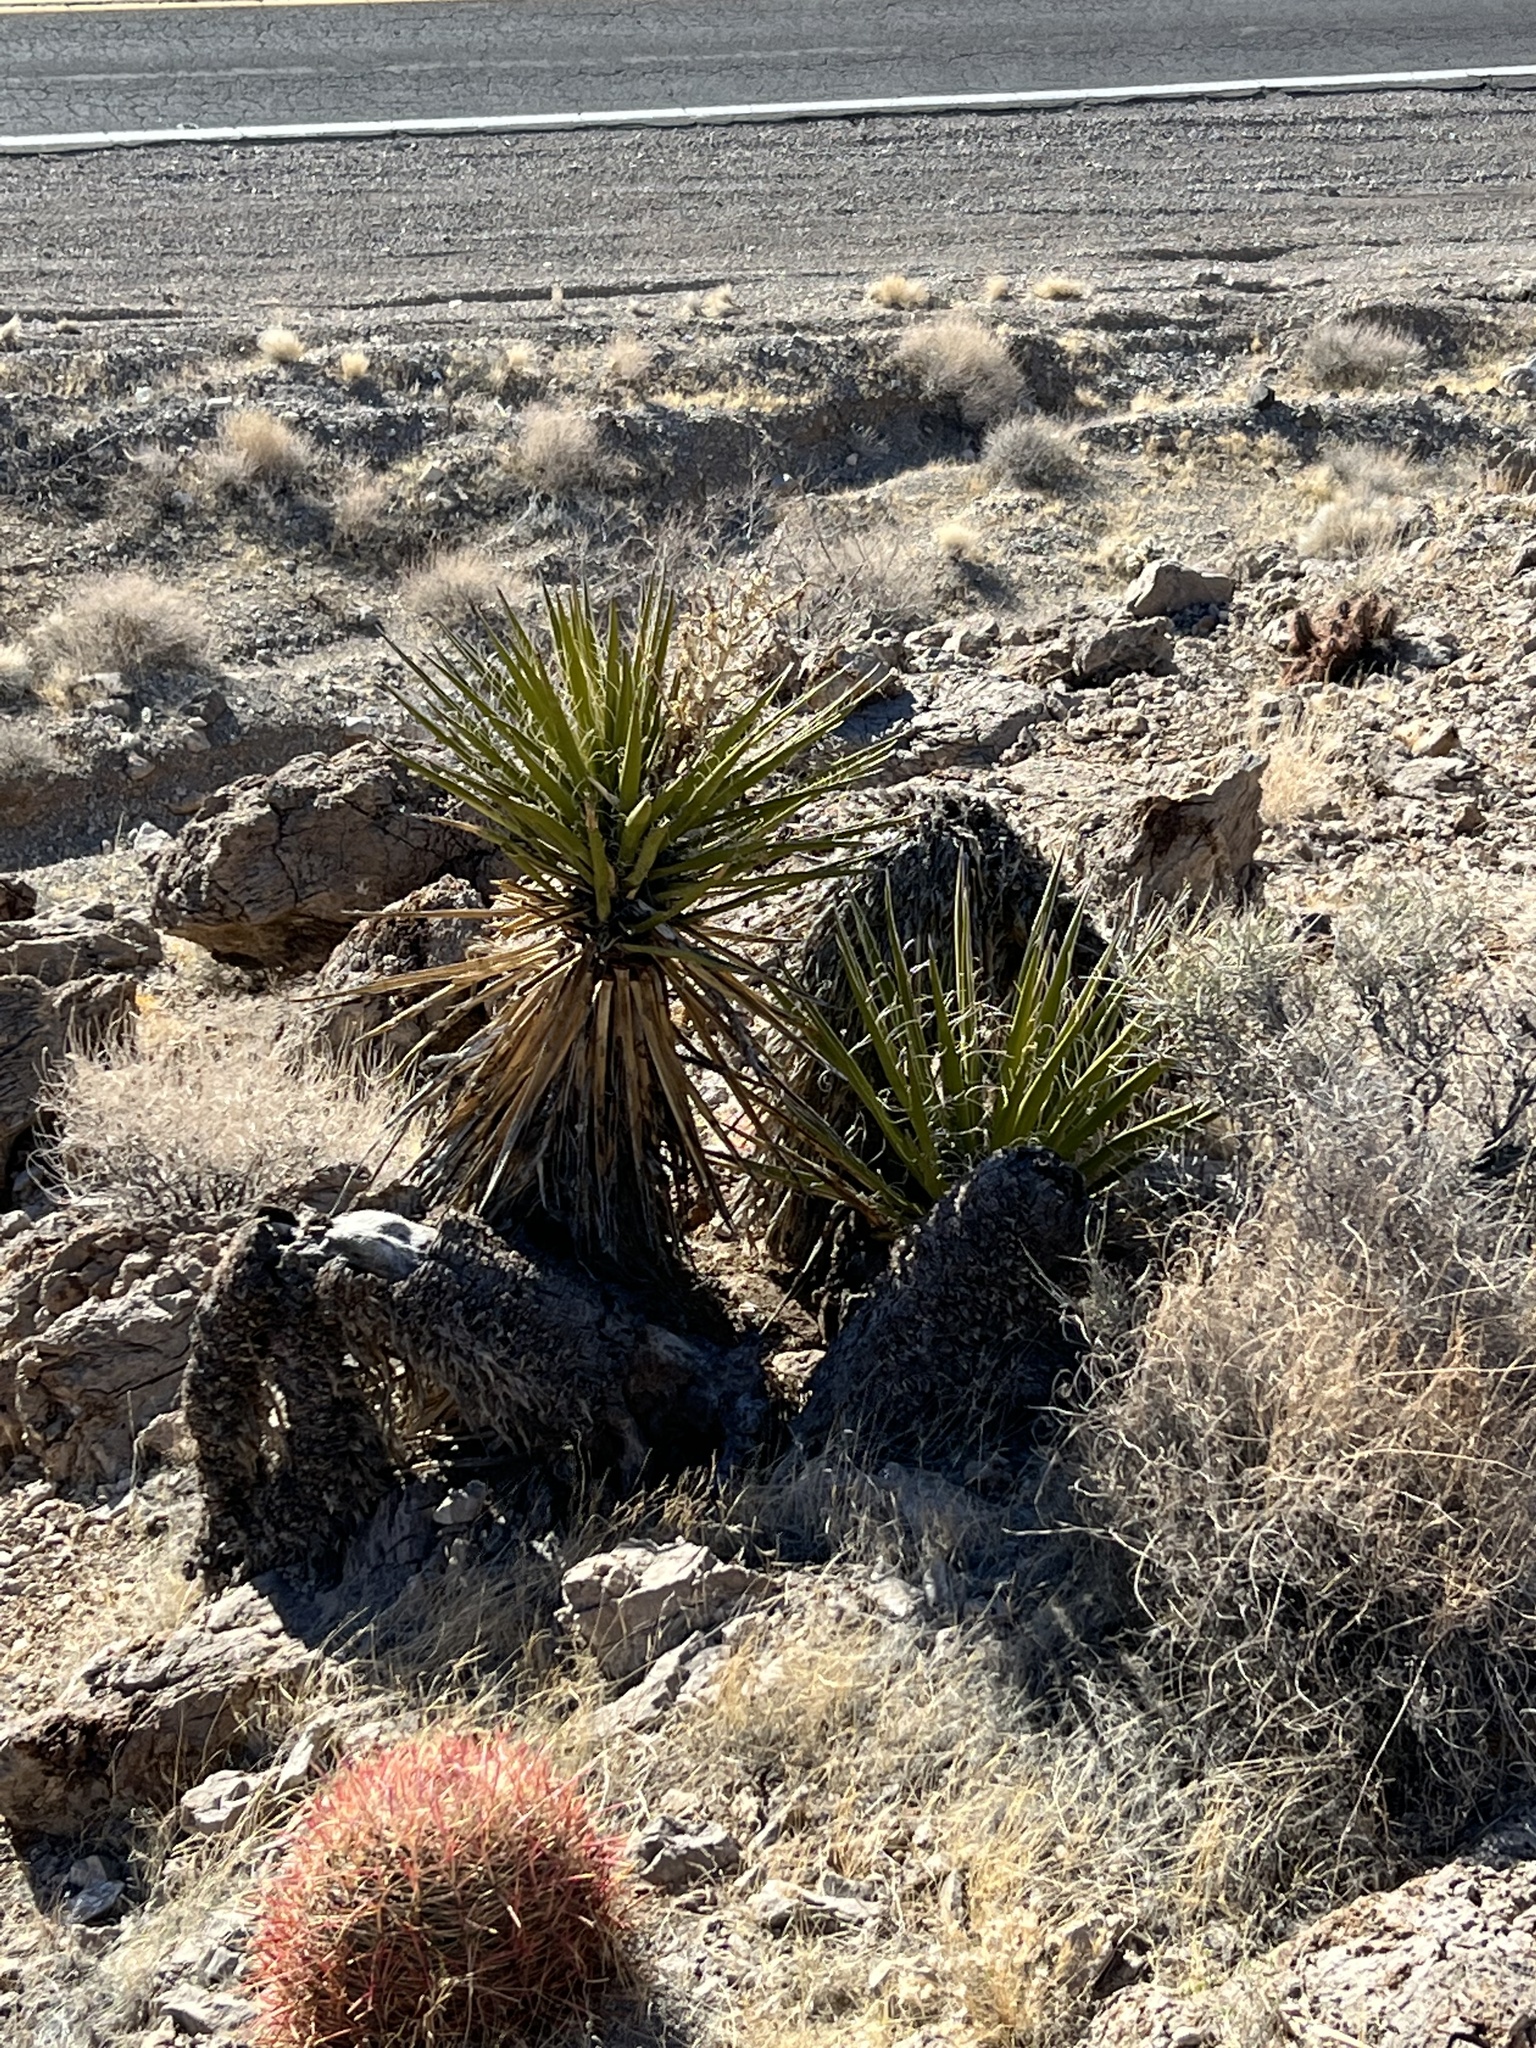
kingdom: Plantae
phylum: Tracheophyta
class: Liliopsida
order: Asparagales
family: Asparagaceae
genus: Yucca
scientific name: Yucca schidigera
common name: Mojave yucca
